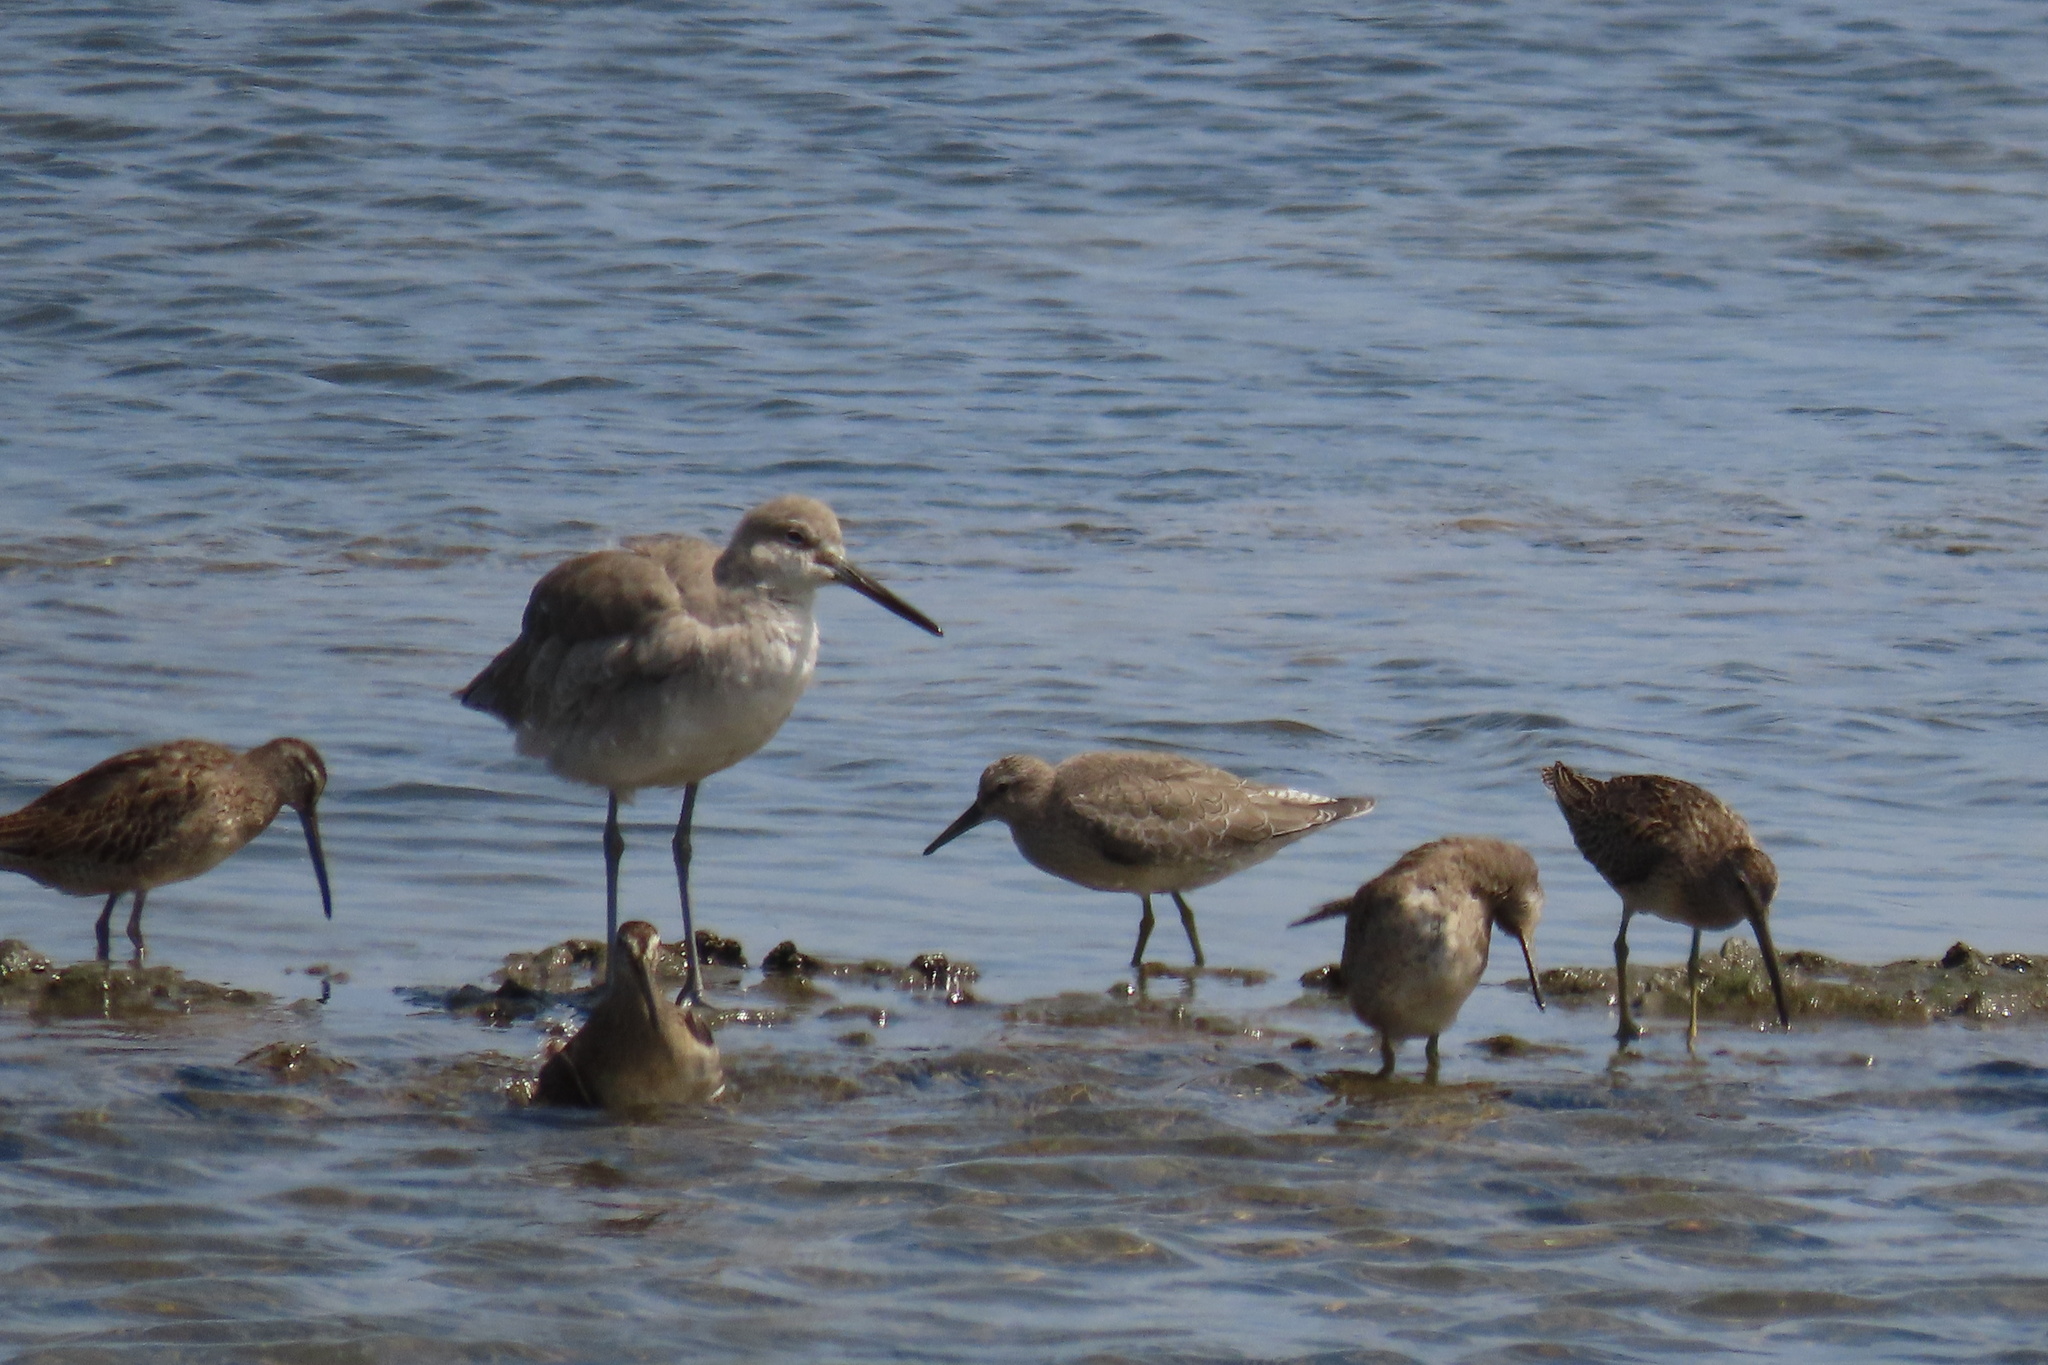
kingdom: Animalia
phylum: Chordata
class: Aves
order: Charadriiformes
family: Scolopacidae
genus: Calidris
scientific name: Calidris canutus
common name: Red knot
